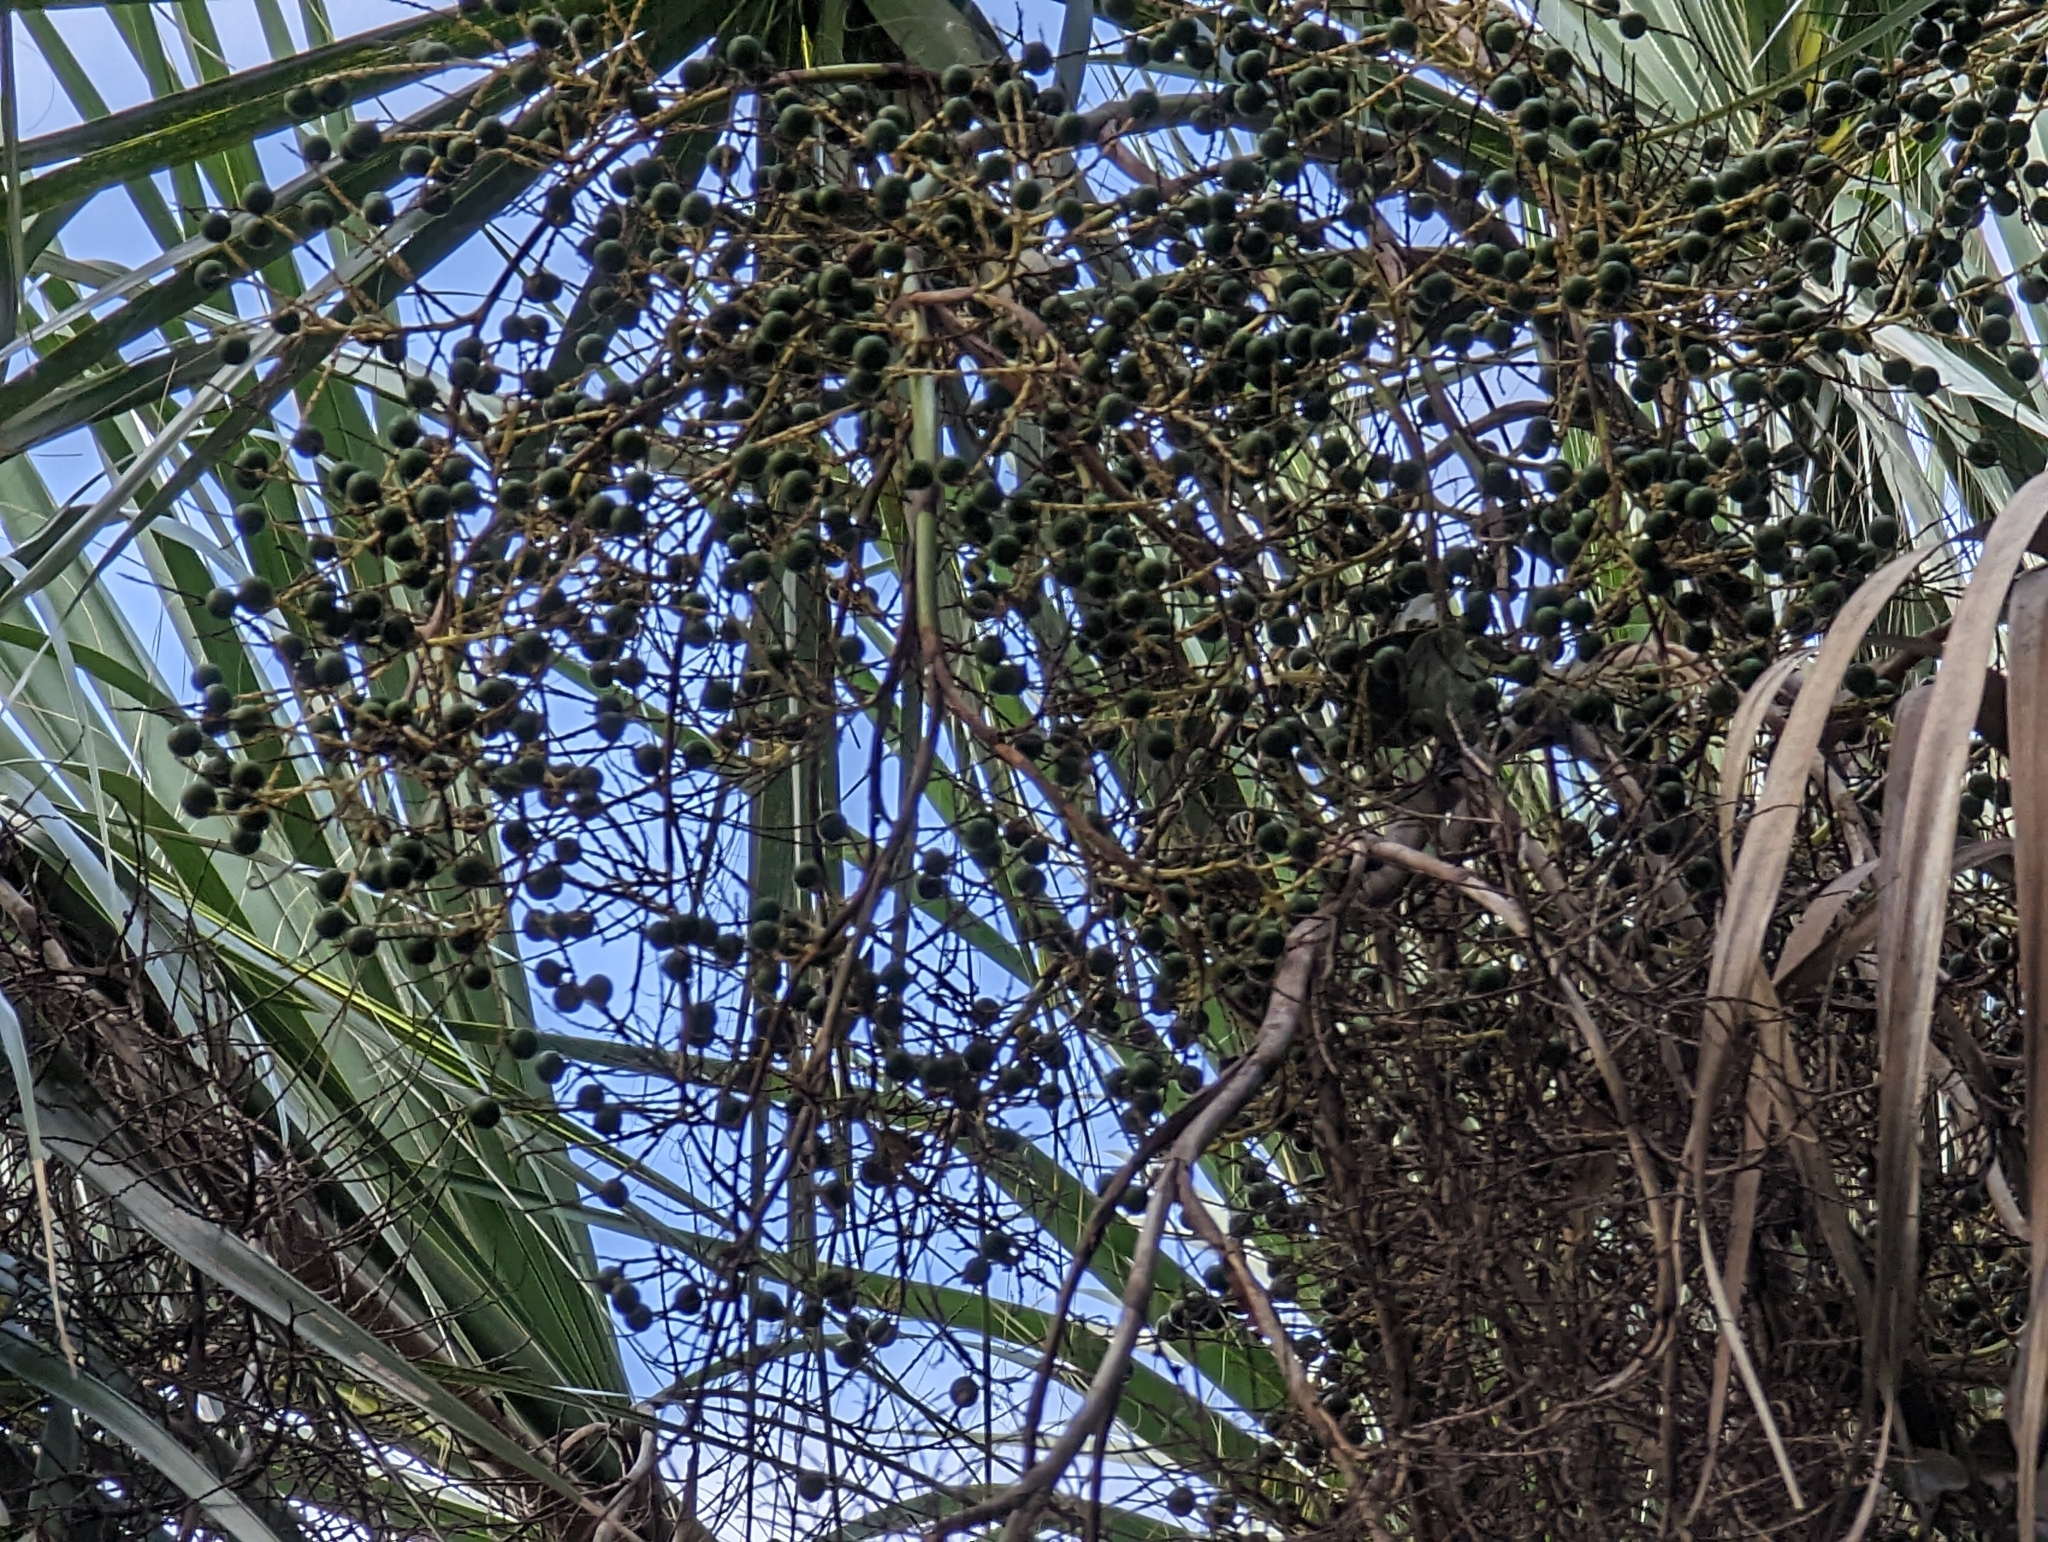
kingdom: Plantae
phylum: Tracheophyta
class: Liliopsida
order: Arecales
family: Arecaceae
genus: Sabal
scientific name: Sabal palmetto
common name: Blue palmetto
